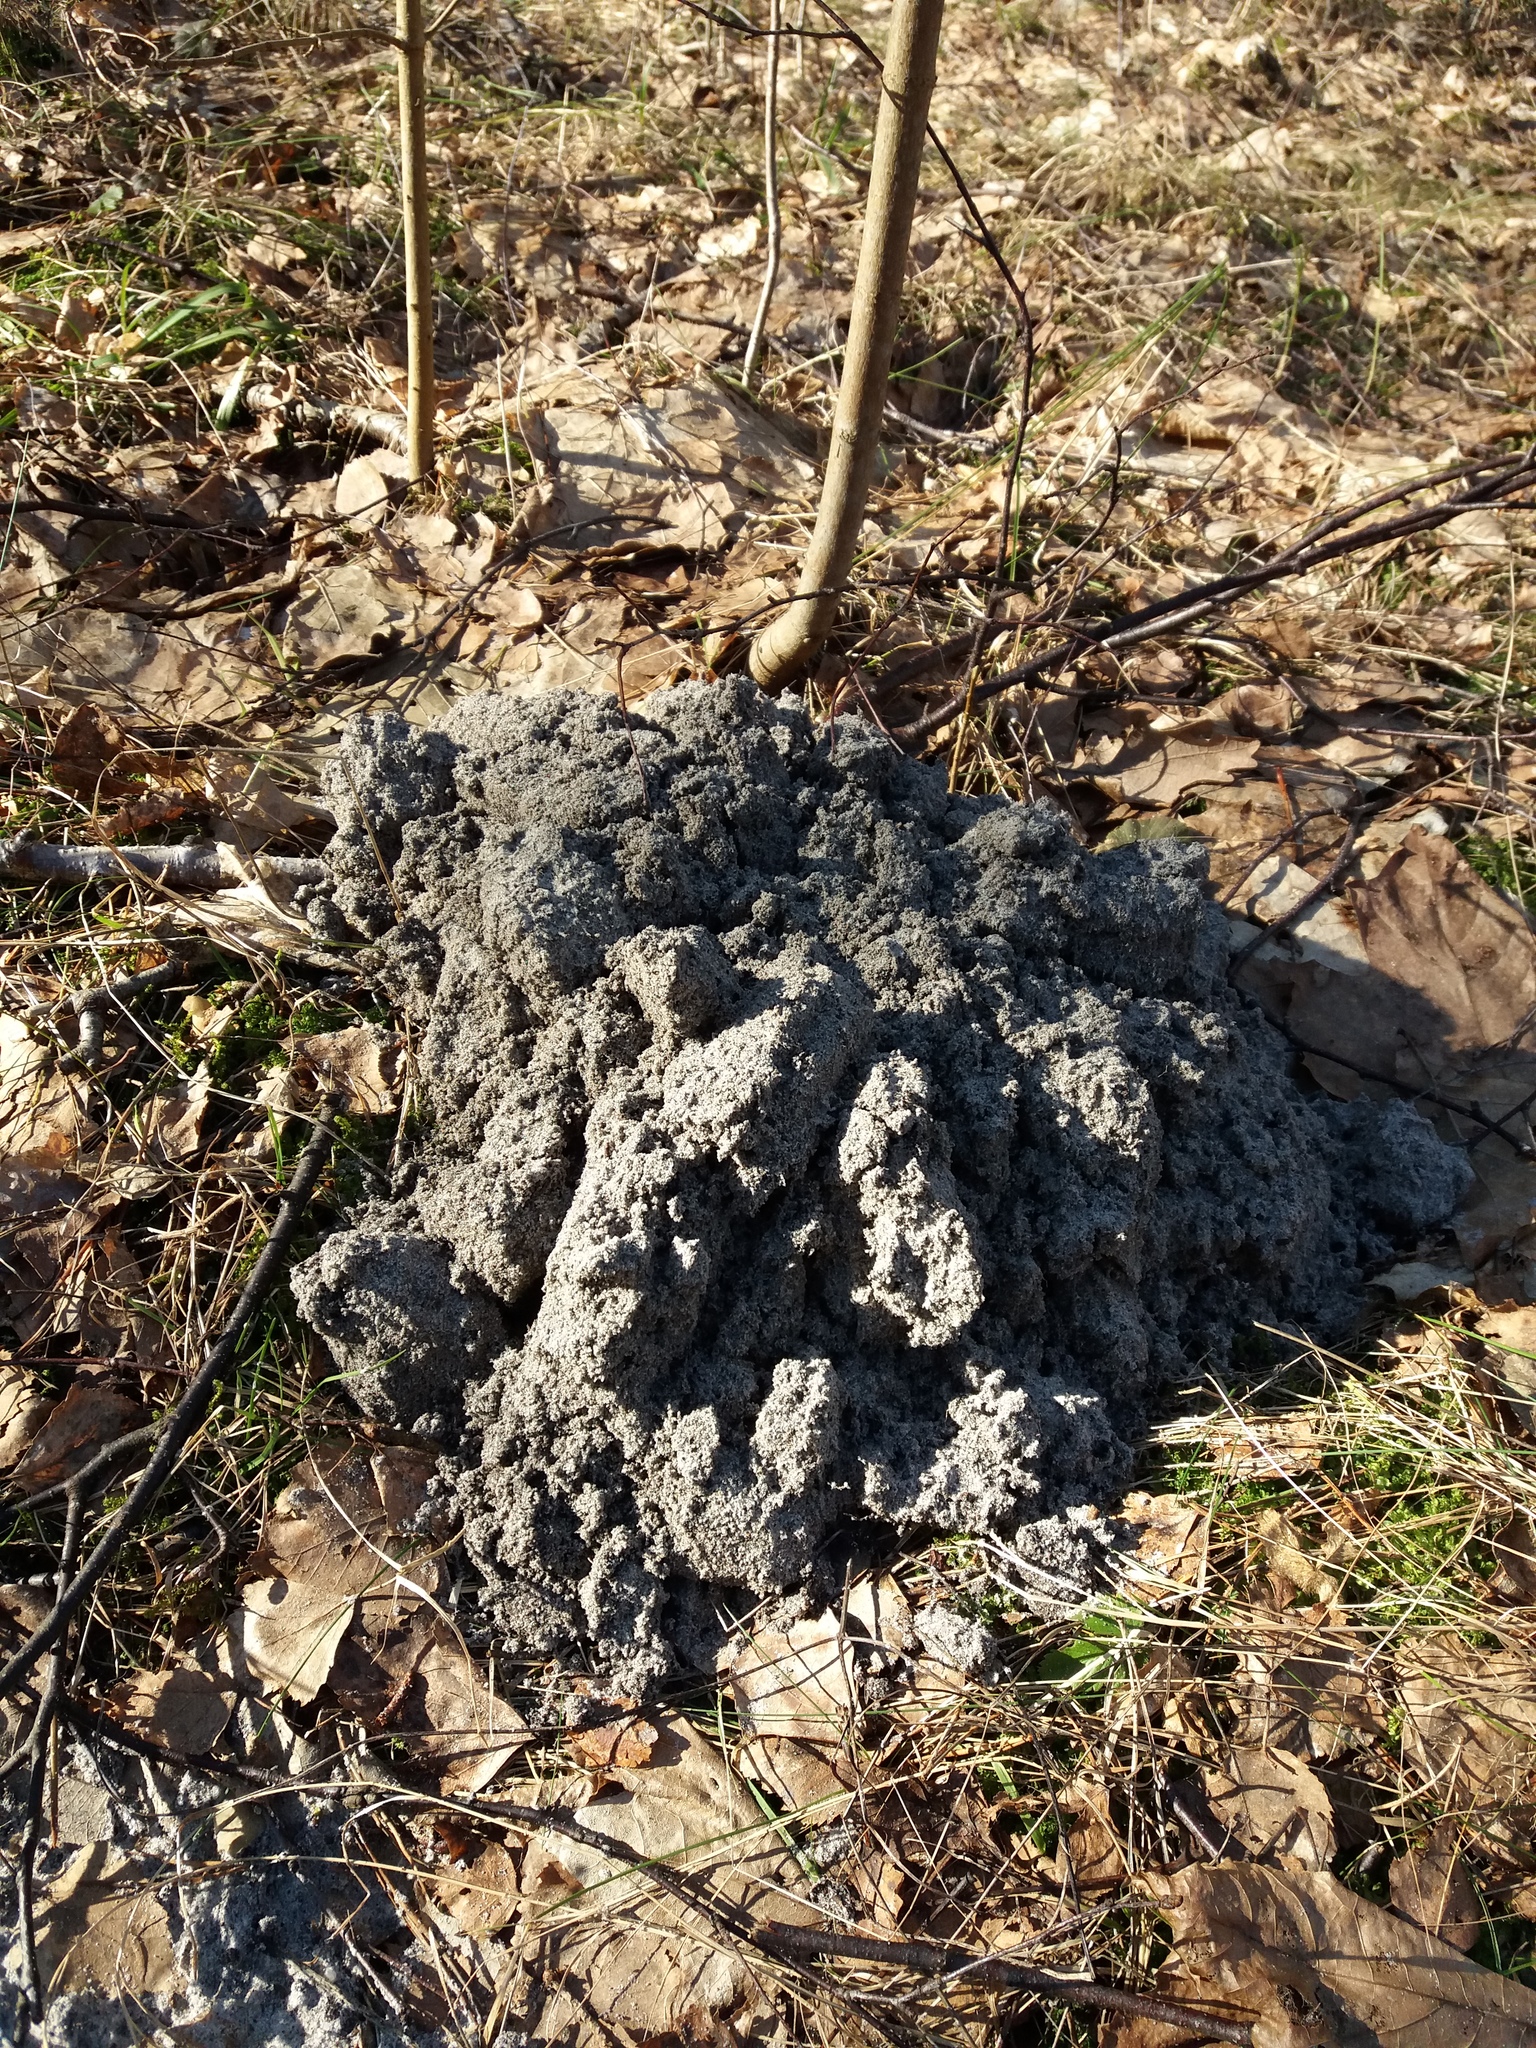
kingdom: Animalia
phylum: Chordata
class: Mammalia
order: Soricomorpha
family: Talpidae
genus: Talpa
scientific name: Talpa europaea
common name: European mole
